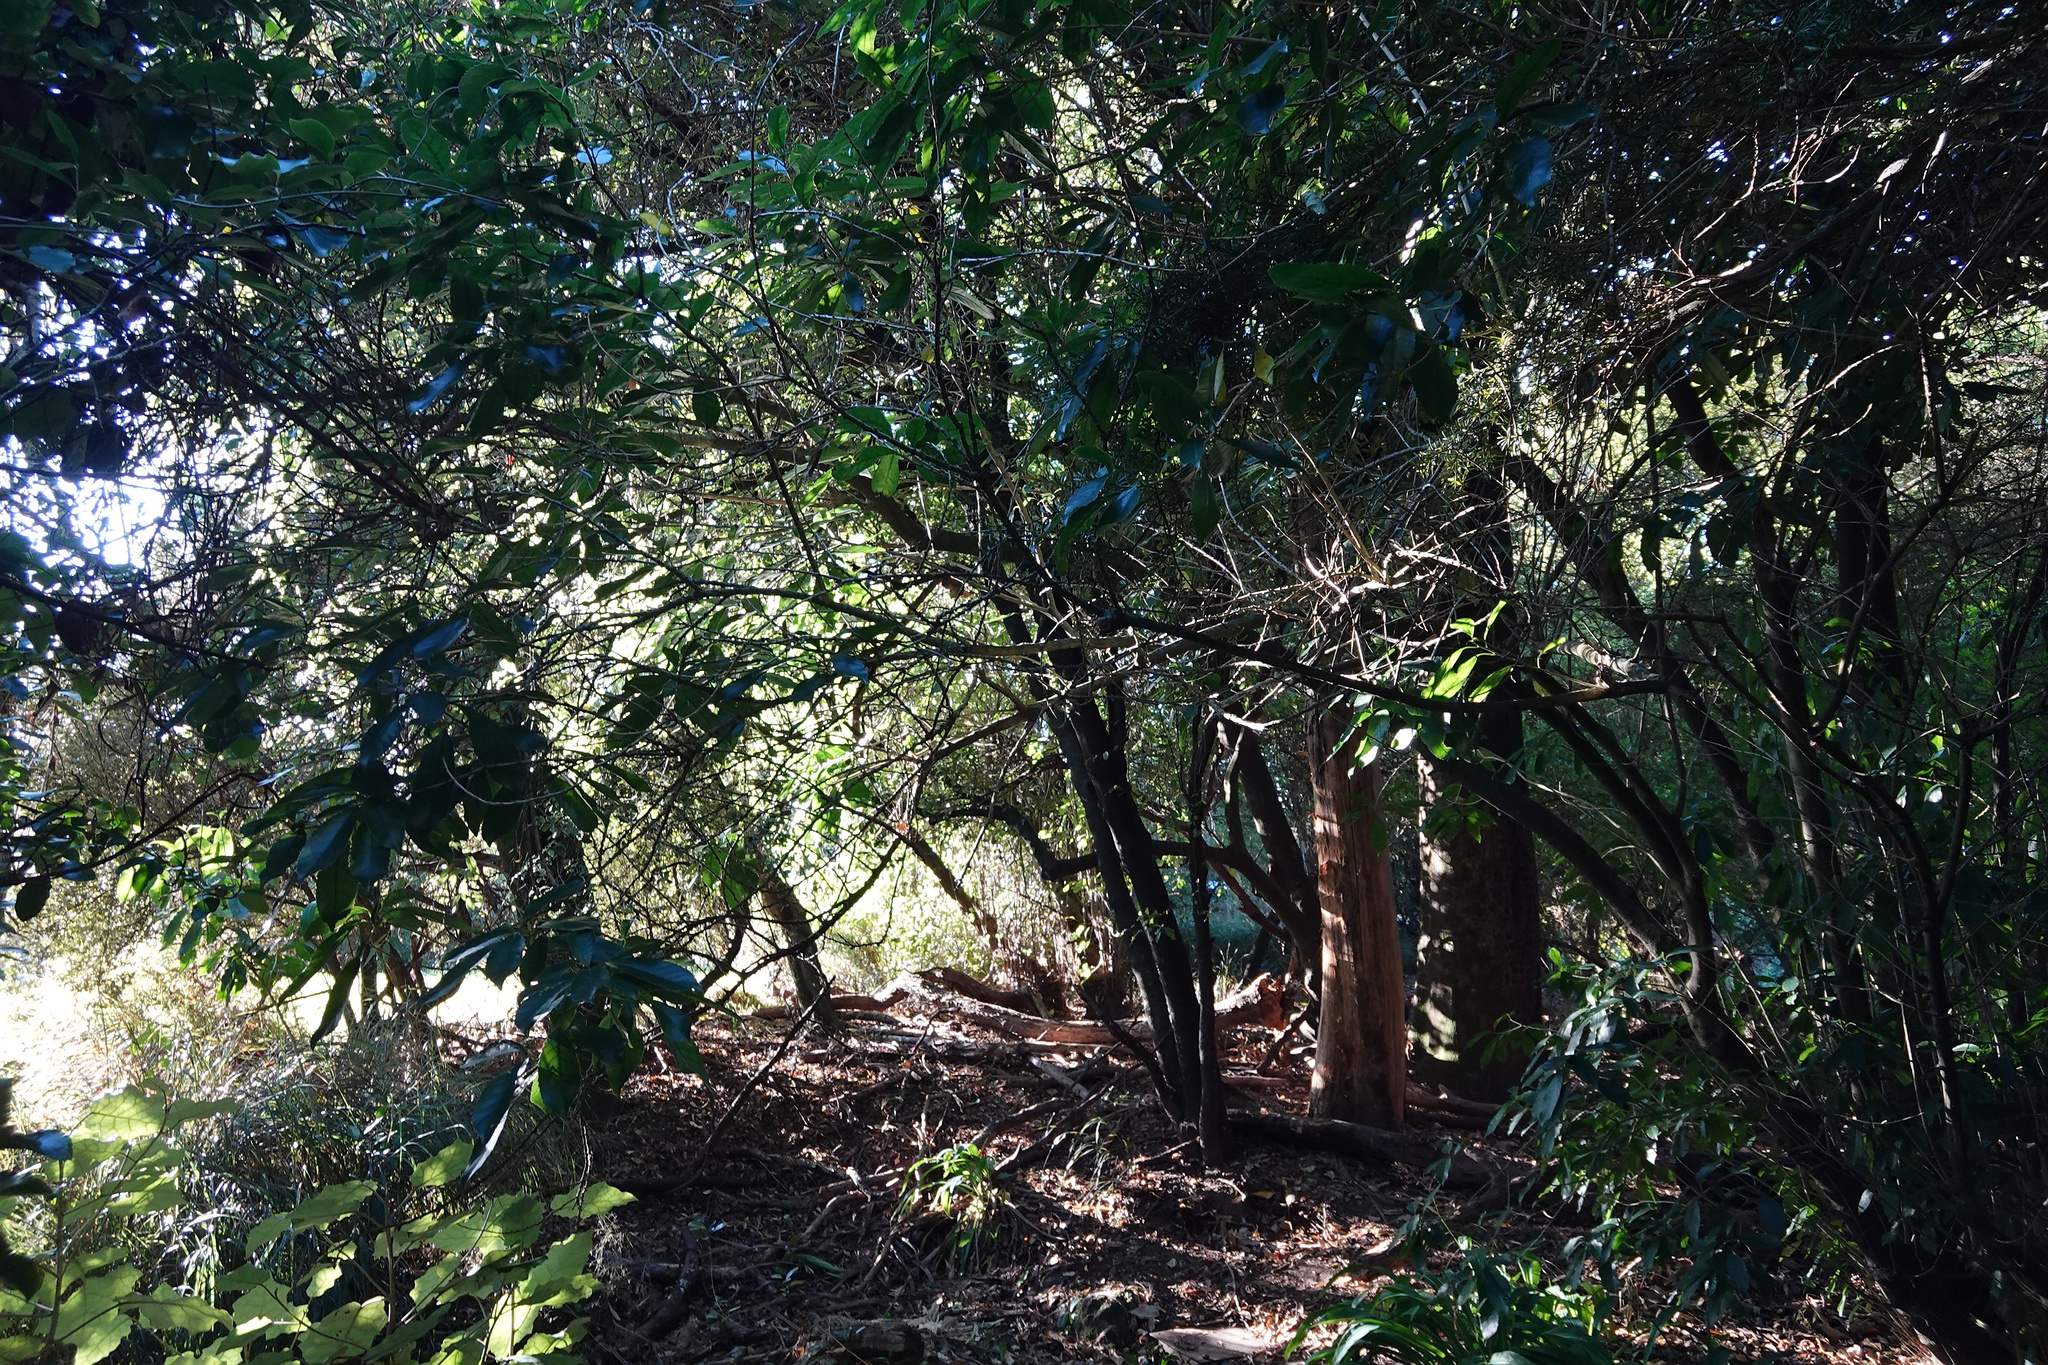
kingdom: Plantae
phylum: Tracheophyta
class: Magnoliopsida
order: Malpighiales
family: Violaceae
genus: Melicytus
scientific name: Melicytus ramiflorus
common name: Mahoe
